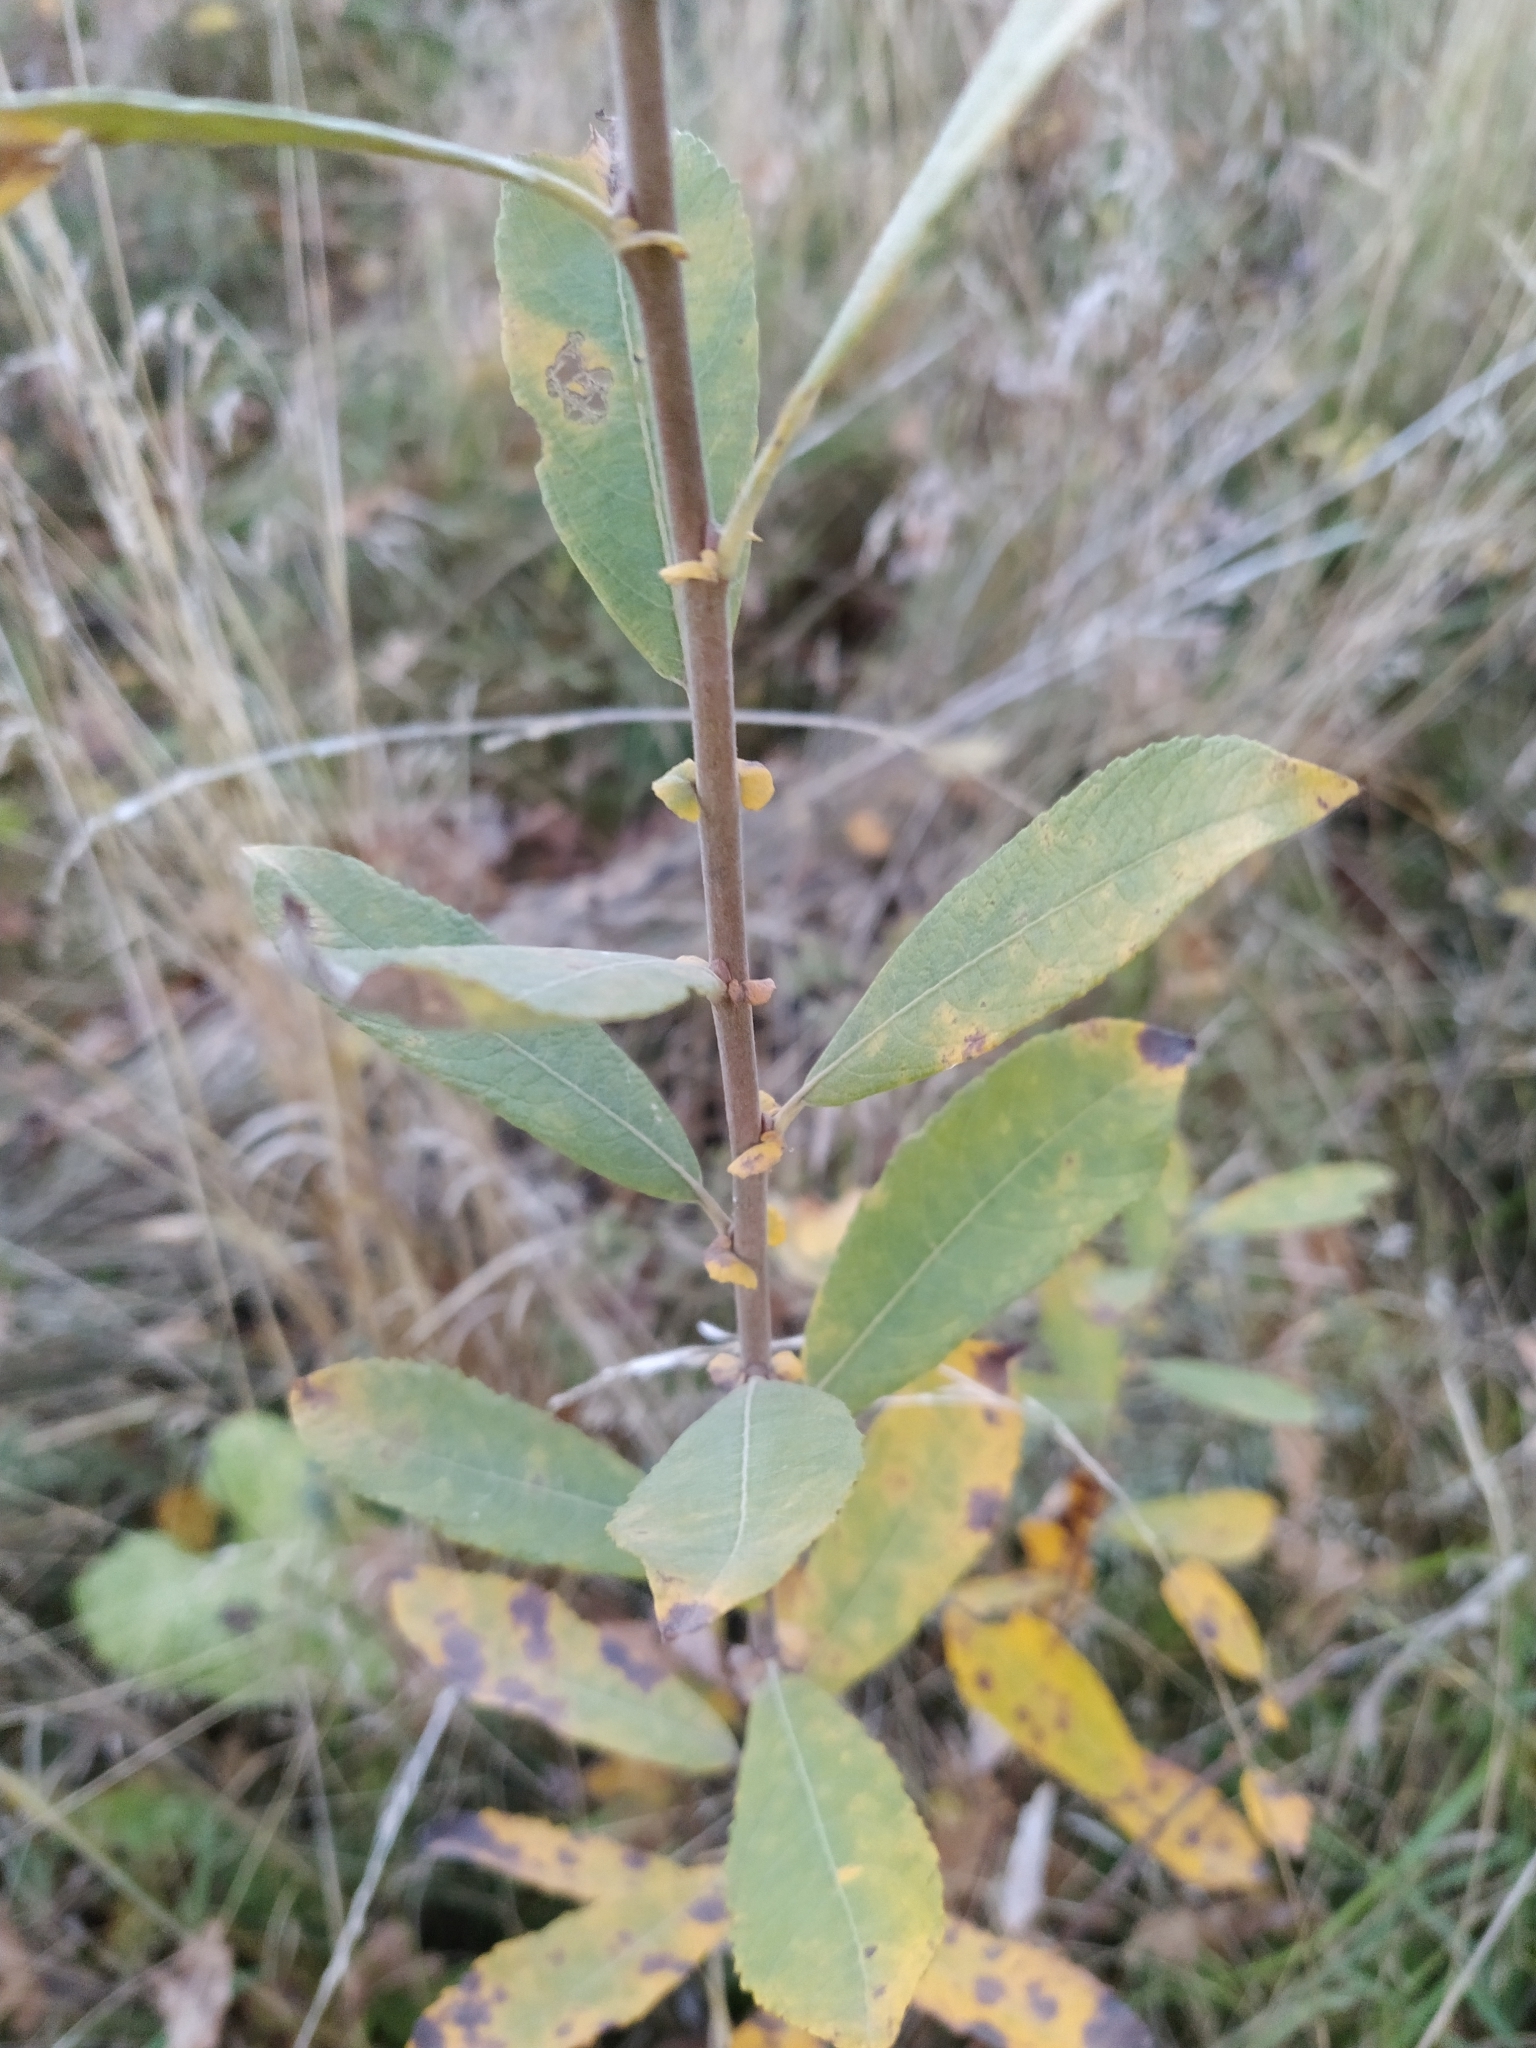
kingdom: Plantae
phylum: Tracheophyta
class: Magnoliopsida
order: Malpighiales
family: Salicaceae
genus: Salix
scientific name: Salix cinerea
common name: Common sallow
